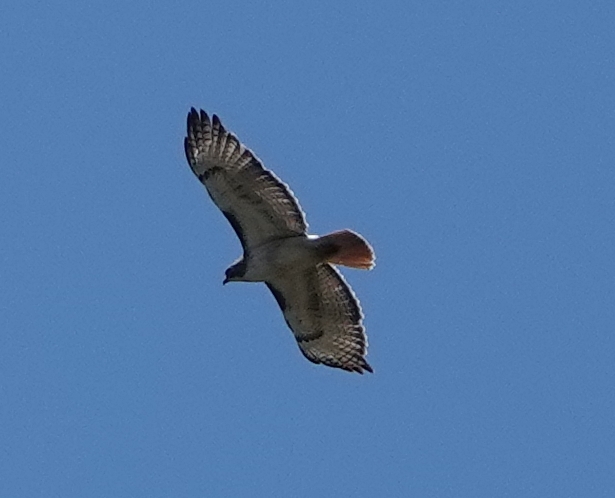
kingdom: Animalia
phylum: Chordata
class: Aves
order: Accipitriformes
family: Accipitridae
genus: Buteo
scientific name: Buteo jamaicensis
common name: Red-tailed hawk
